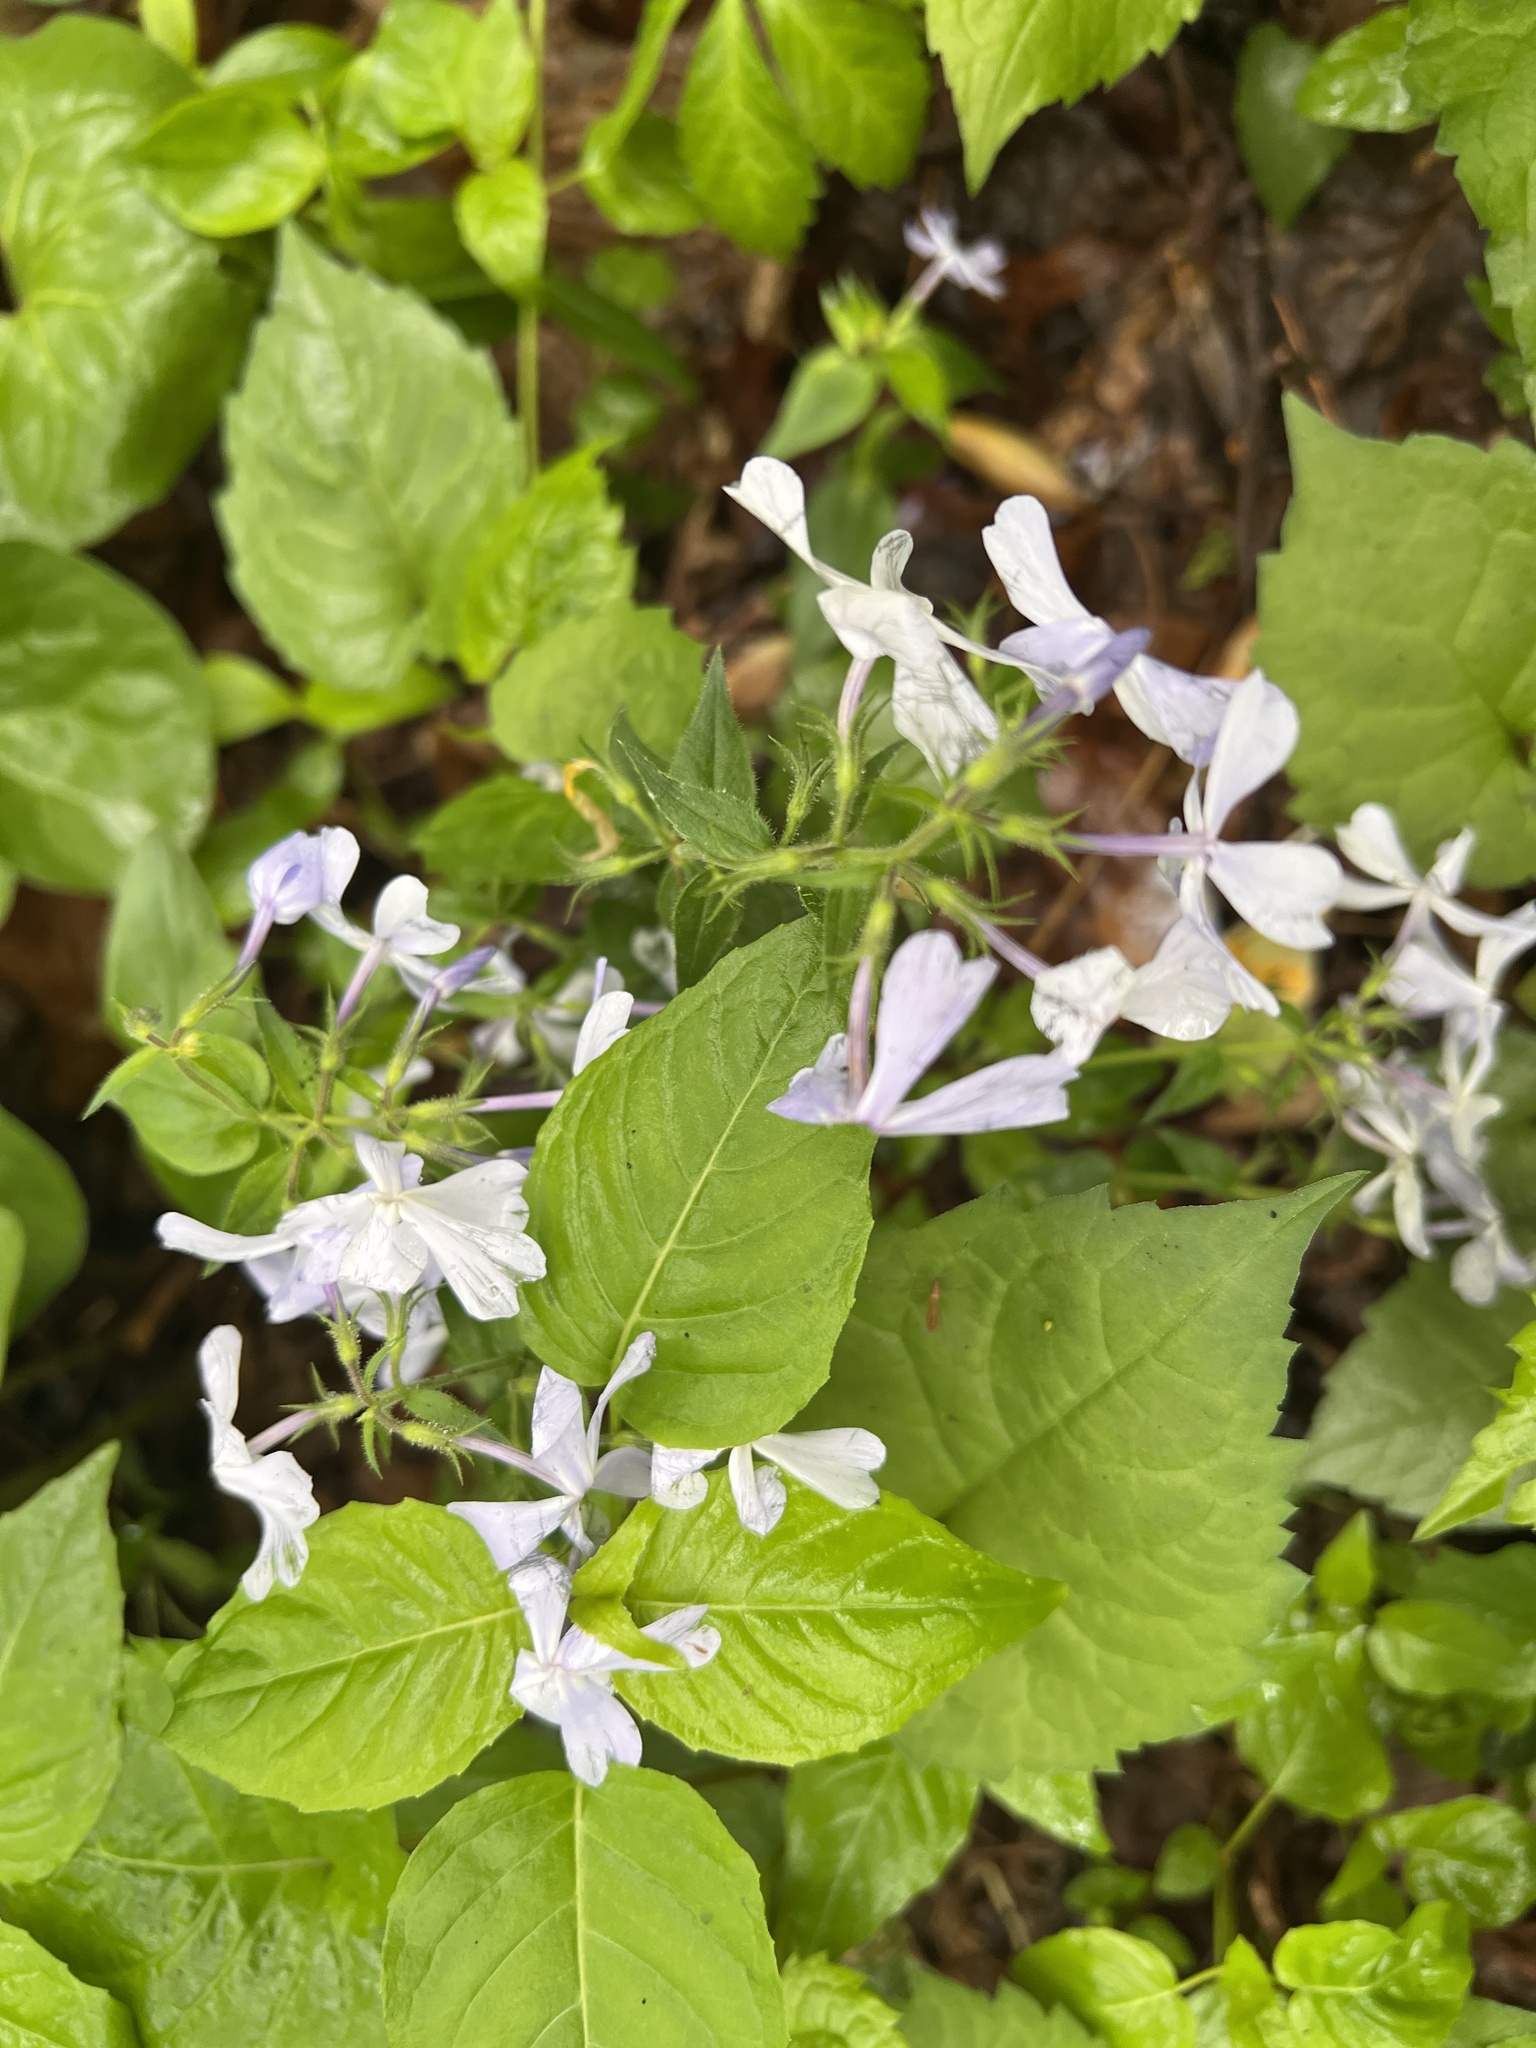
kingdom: Plantae
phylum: Tracheophyta
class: Magnoliopsida
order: Ericales
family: Polemoniaceae
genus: Phlox
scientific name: Phlox divaricata
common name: Blue phlox
